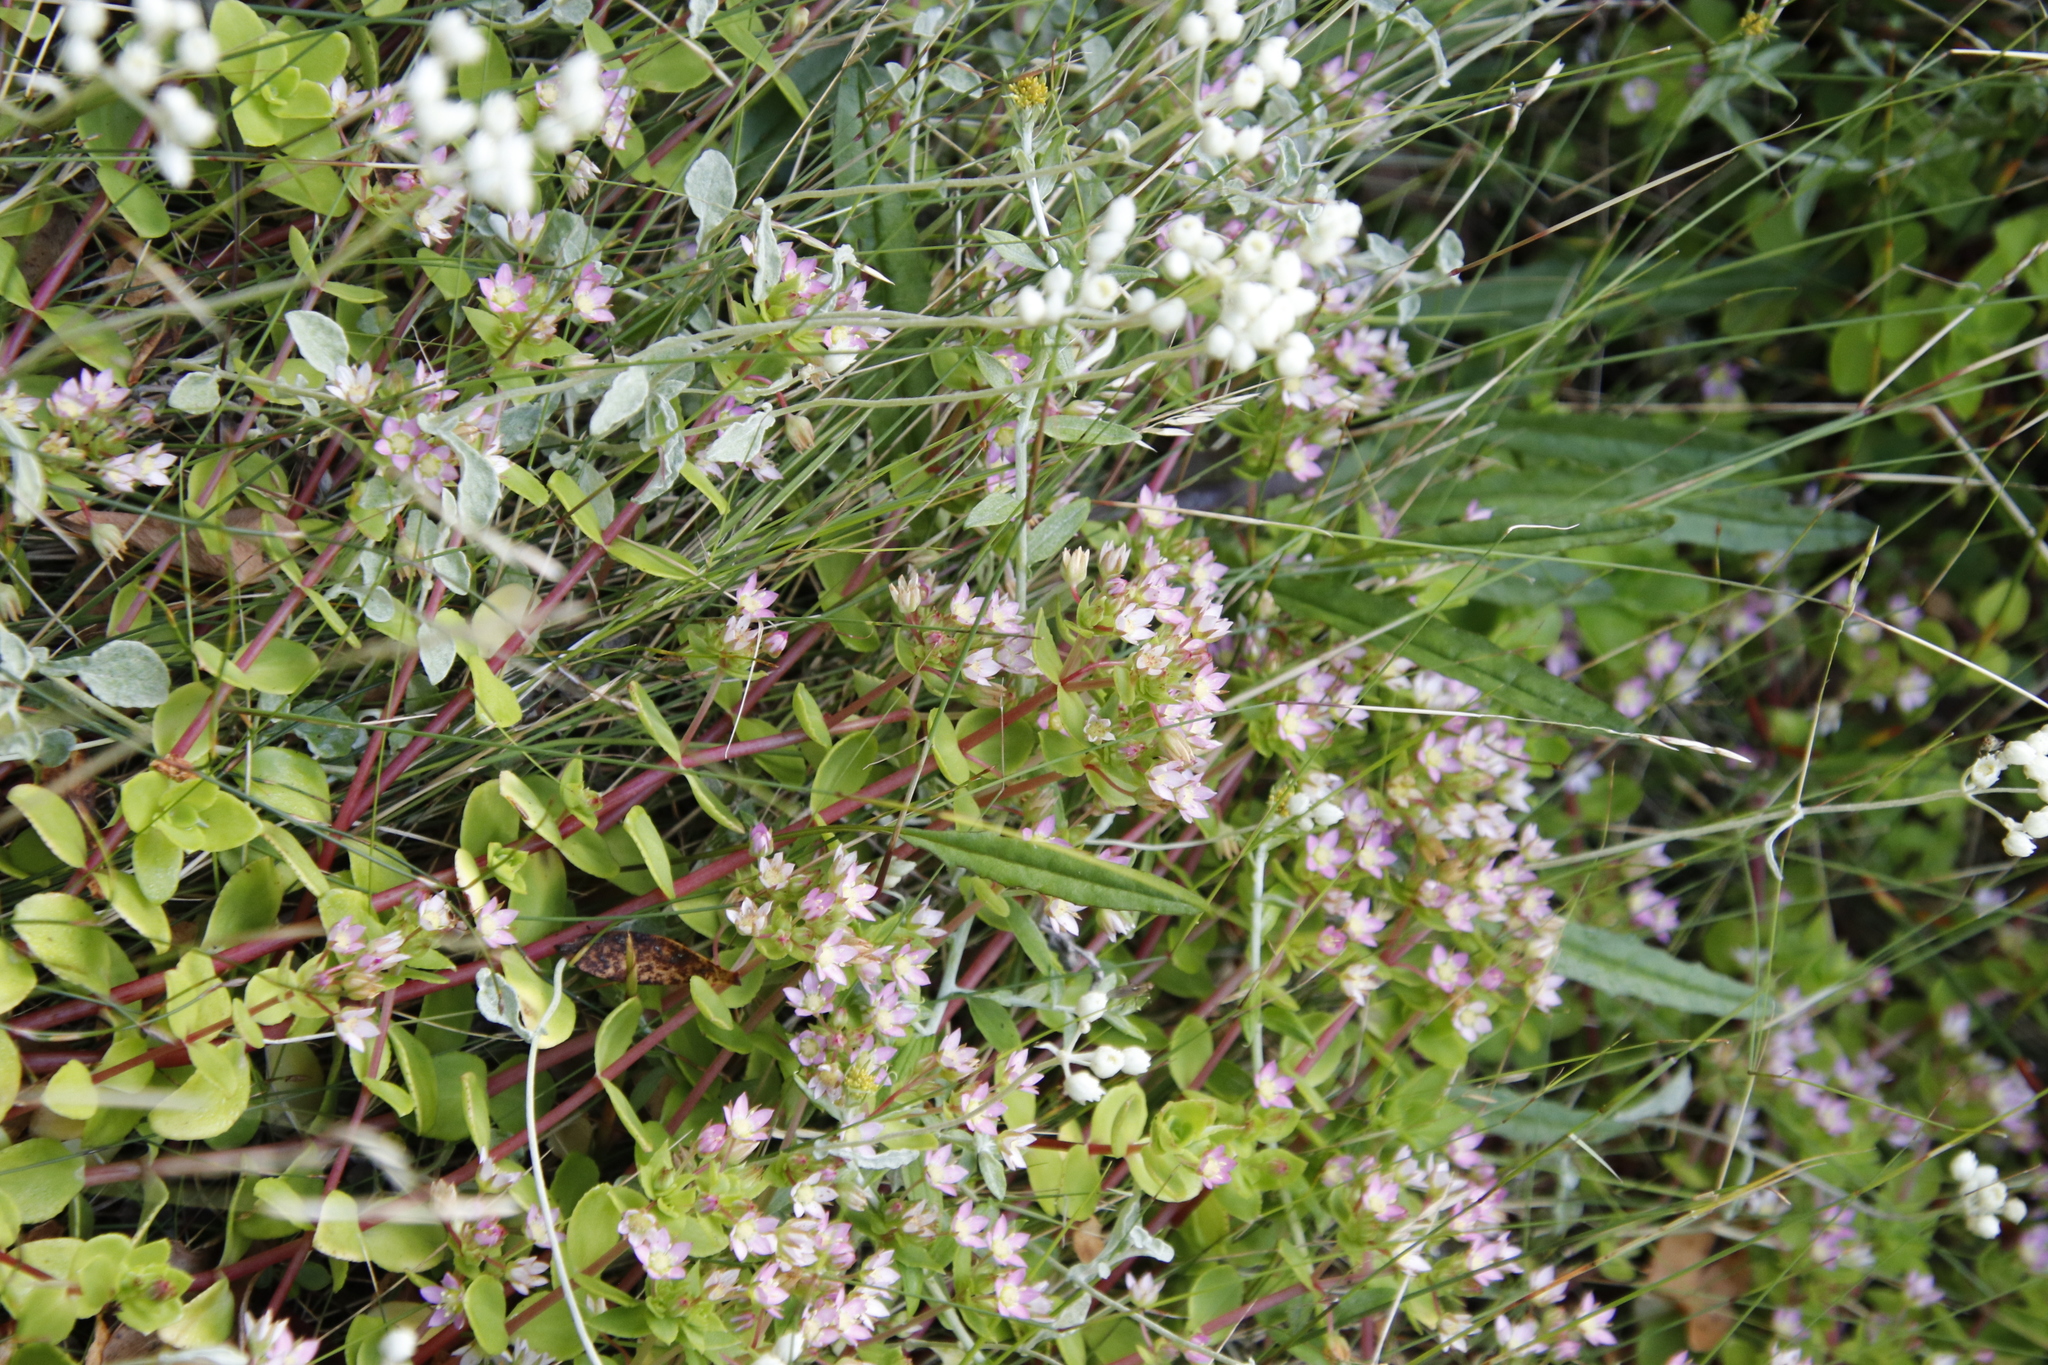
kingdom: Plantae
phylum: Tracheophyta
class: Magnoliopsida
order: Saxifragales
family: Crassulaceae
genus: Crassula
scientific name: Crassula pellucida
